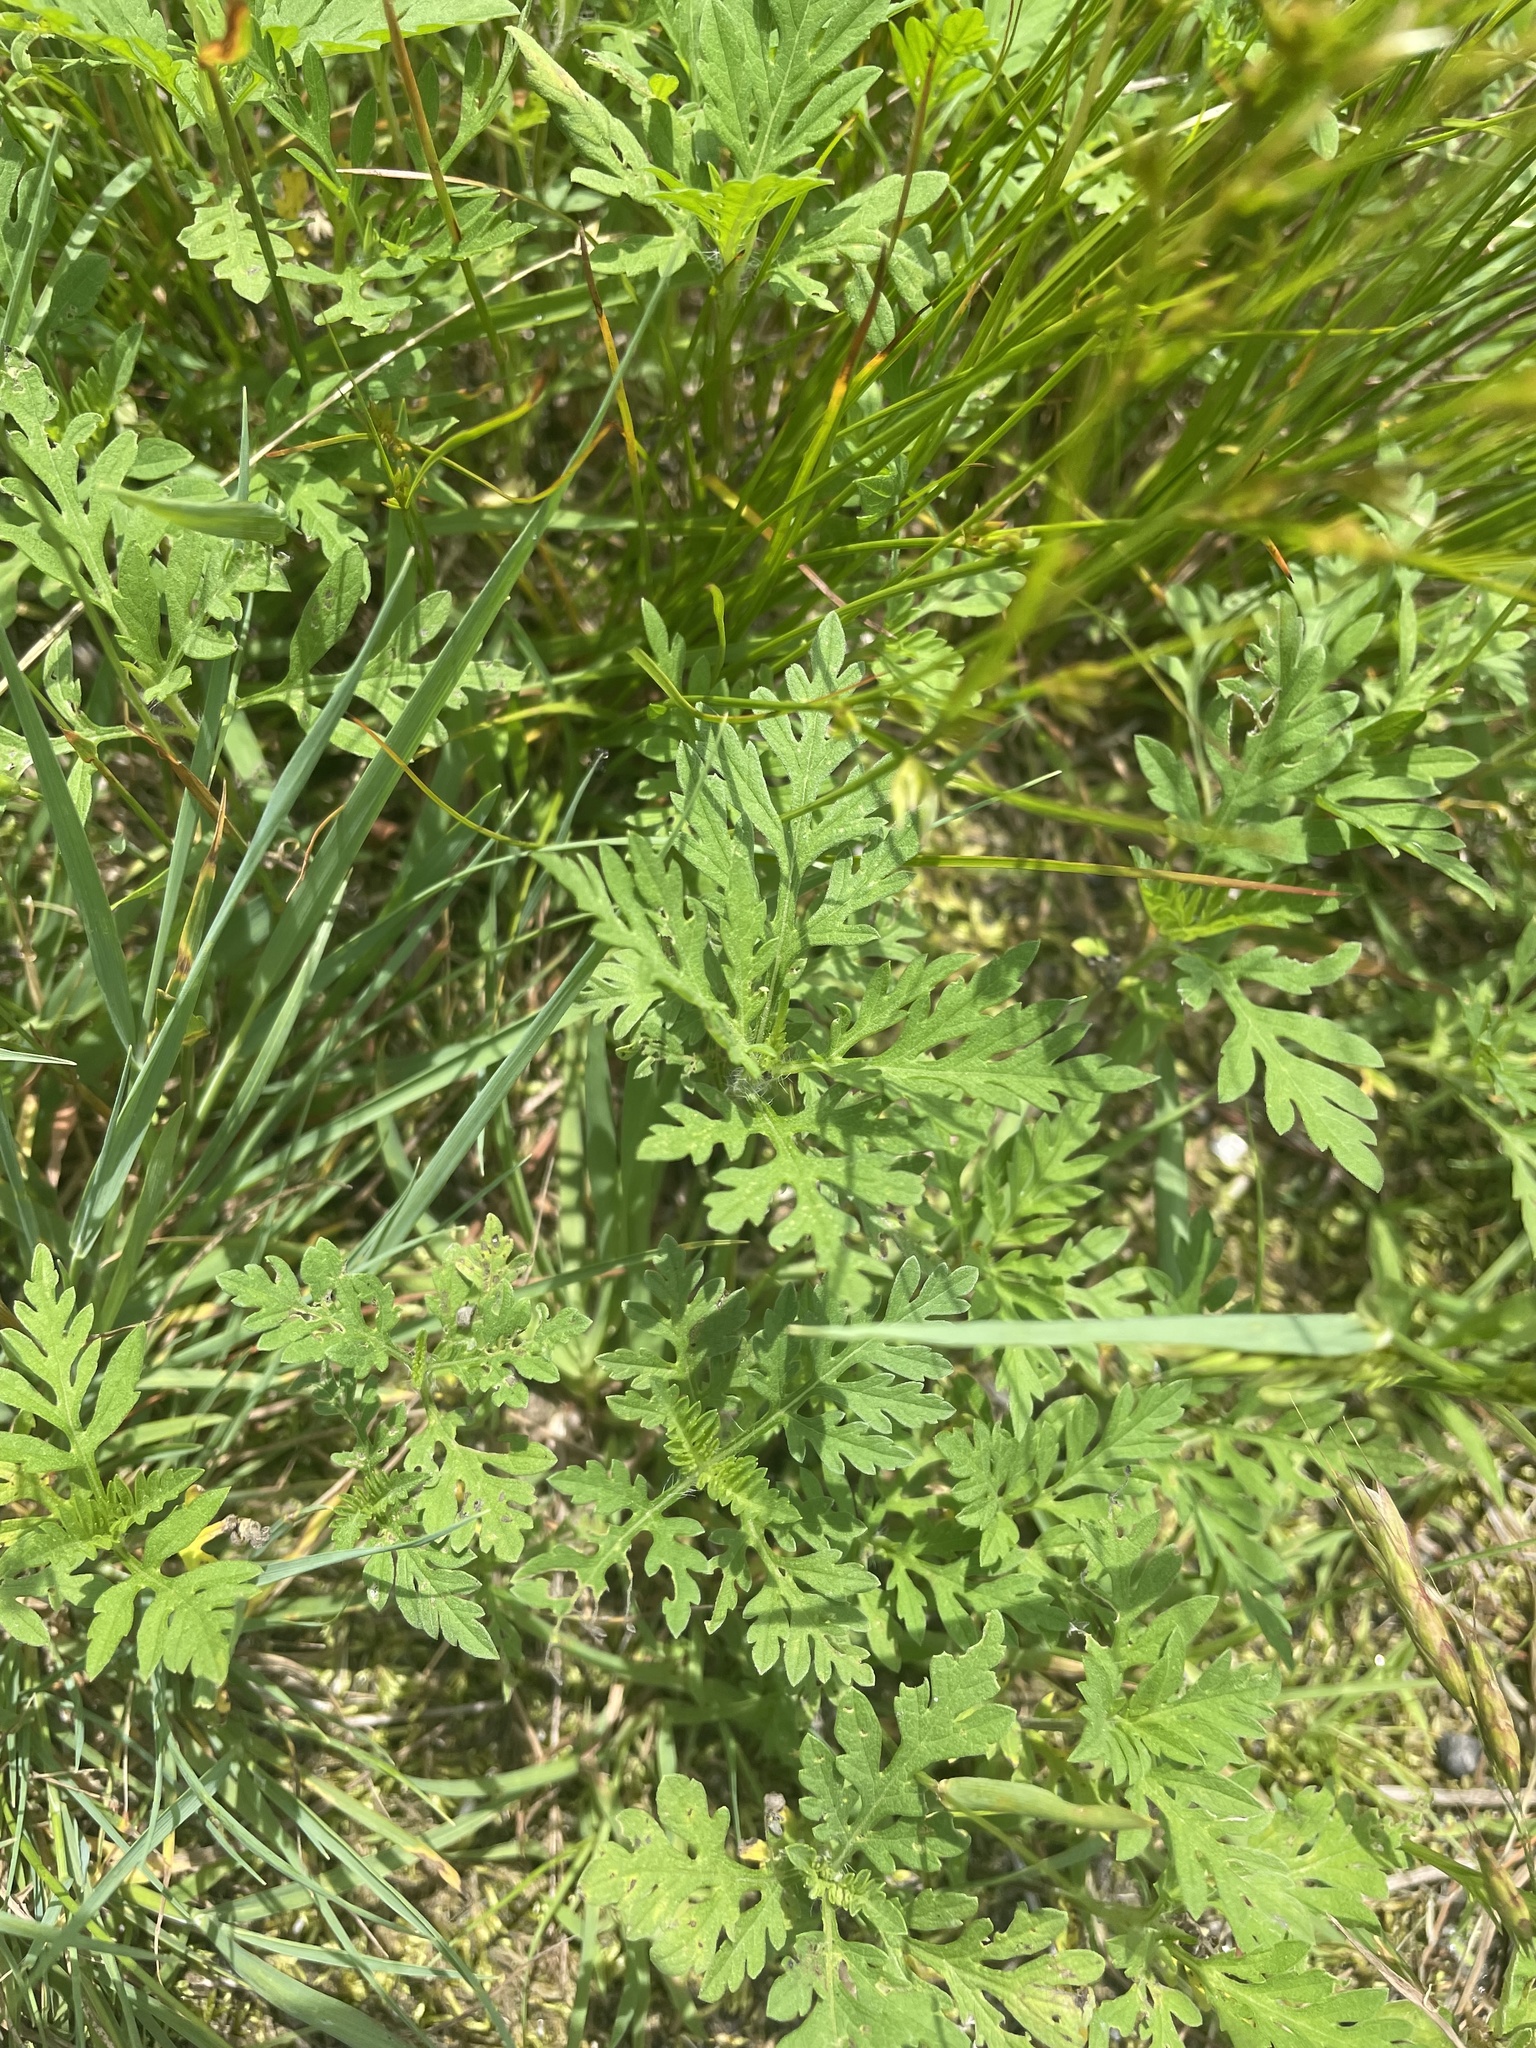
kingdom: Plantae
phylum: Tracheophyta
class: Magnoliopsida
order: Asterales
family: Asteraceae
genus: Ambrosia
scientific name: Ambrosia artemisiifolia
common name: Annual ragweed
